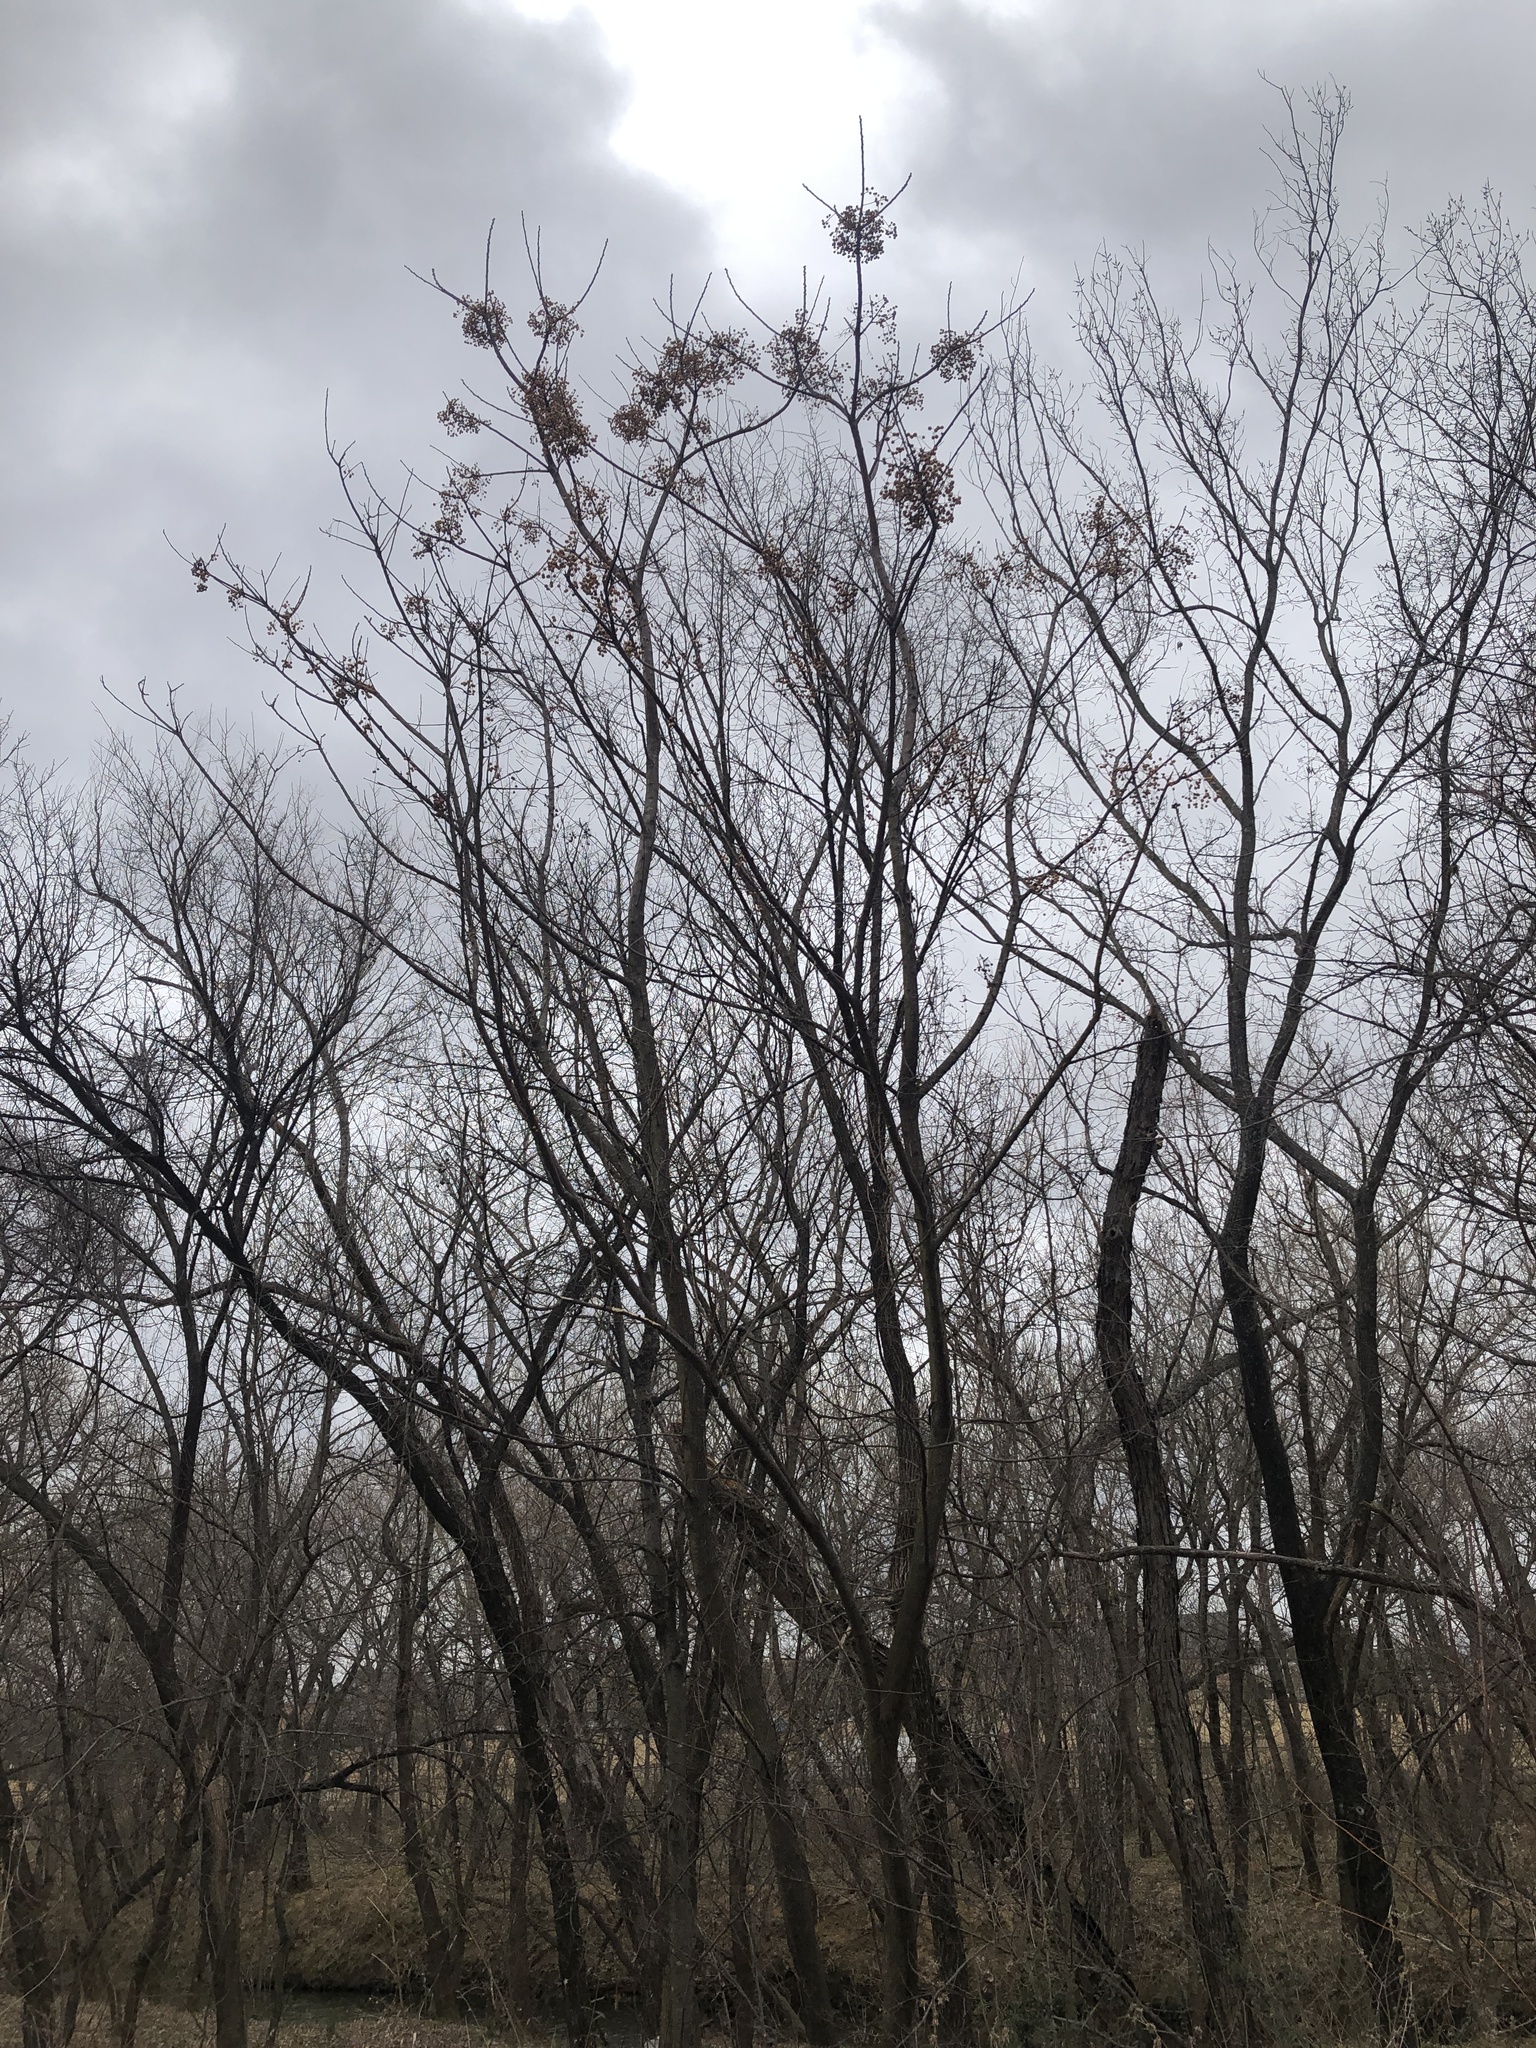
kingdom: Plantae
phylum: Tracheophyta
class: Magnoliopsida
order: Sapindales
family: Meliaceae
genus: Melia
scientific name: Melia azedarach
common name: Chinaberrytree
